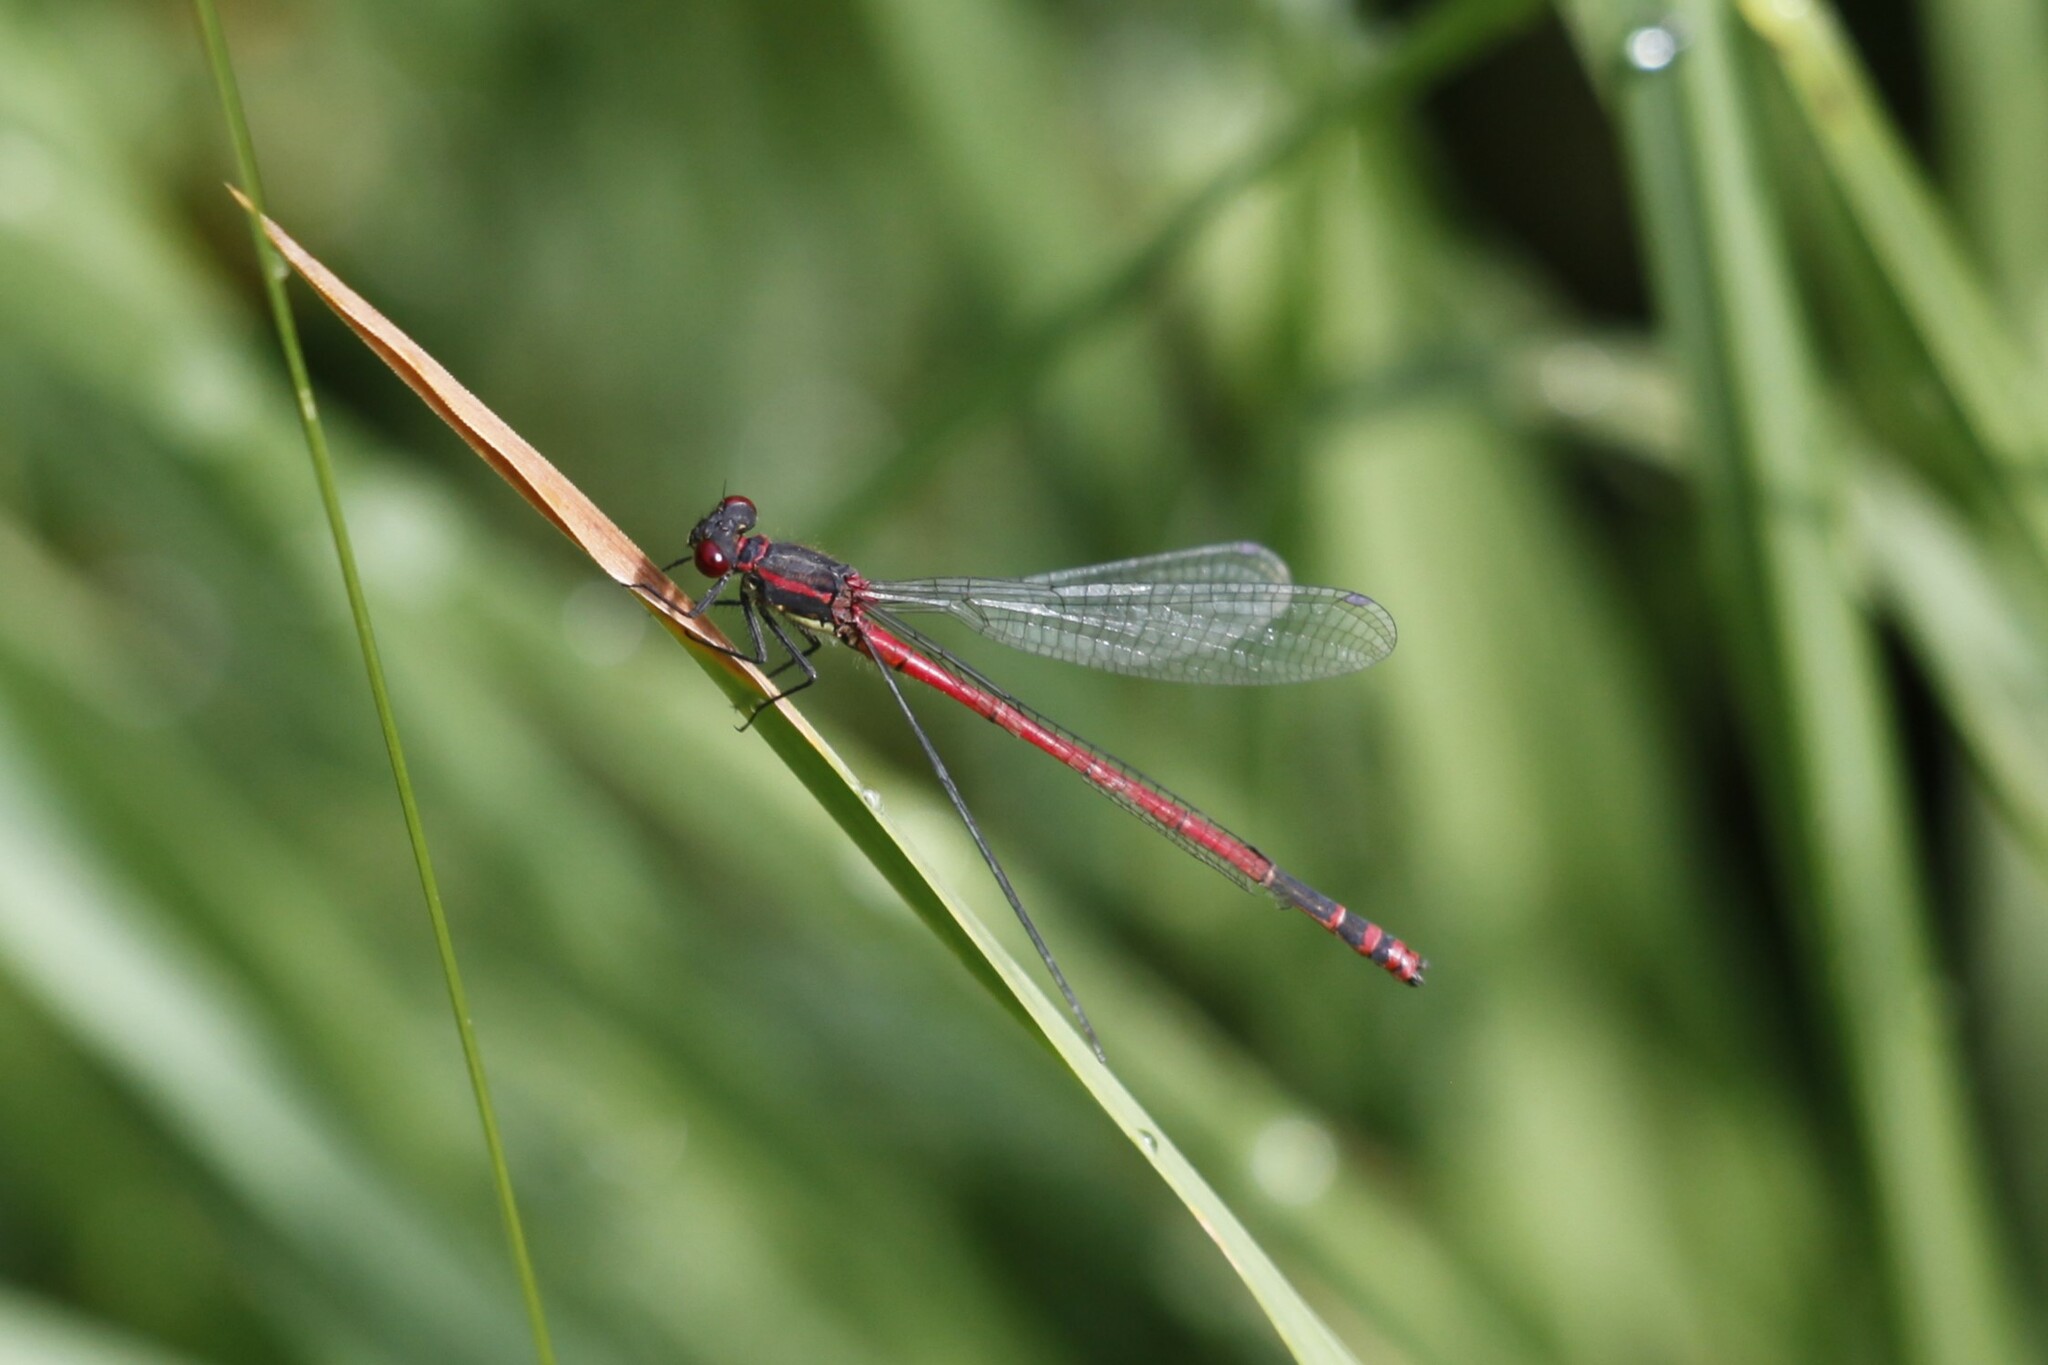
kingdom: Animalia
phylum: Arthropoda
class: Insecta
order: Odonata
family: Coenagrionidae
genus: Pyrrhosoma
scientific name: Pyrrhosoma nymphula
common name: Large red damsel
